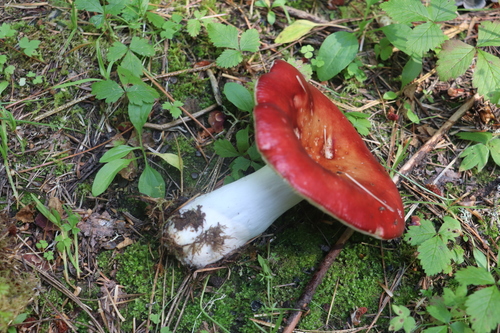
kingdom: Fungi
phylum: Basidiomycota
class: Agaricomycetes
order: Russulales
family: Russulaceae
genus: Russula
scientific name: Russula sanguinea
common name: Bloody brittlegill
